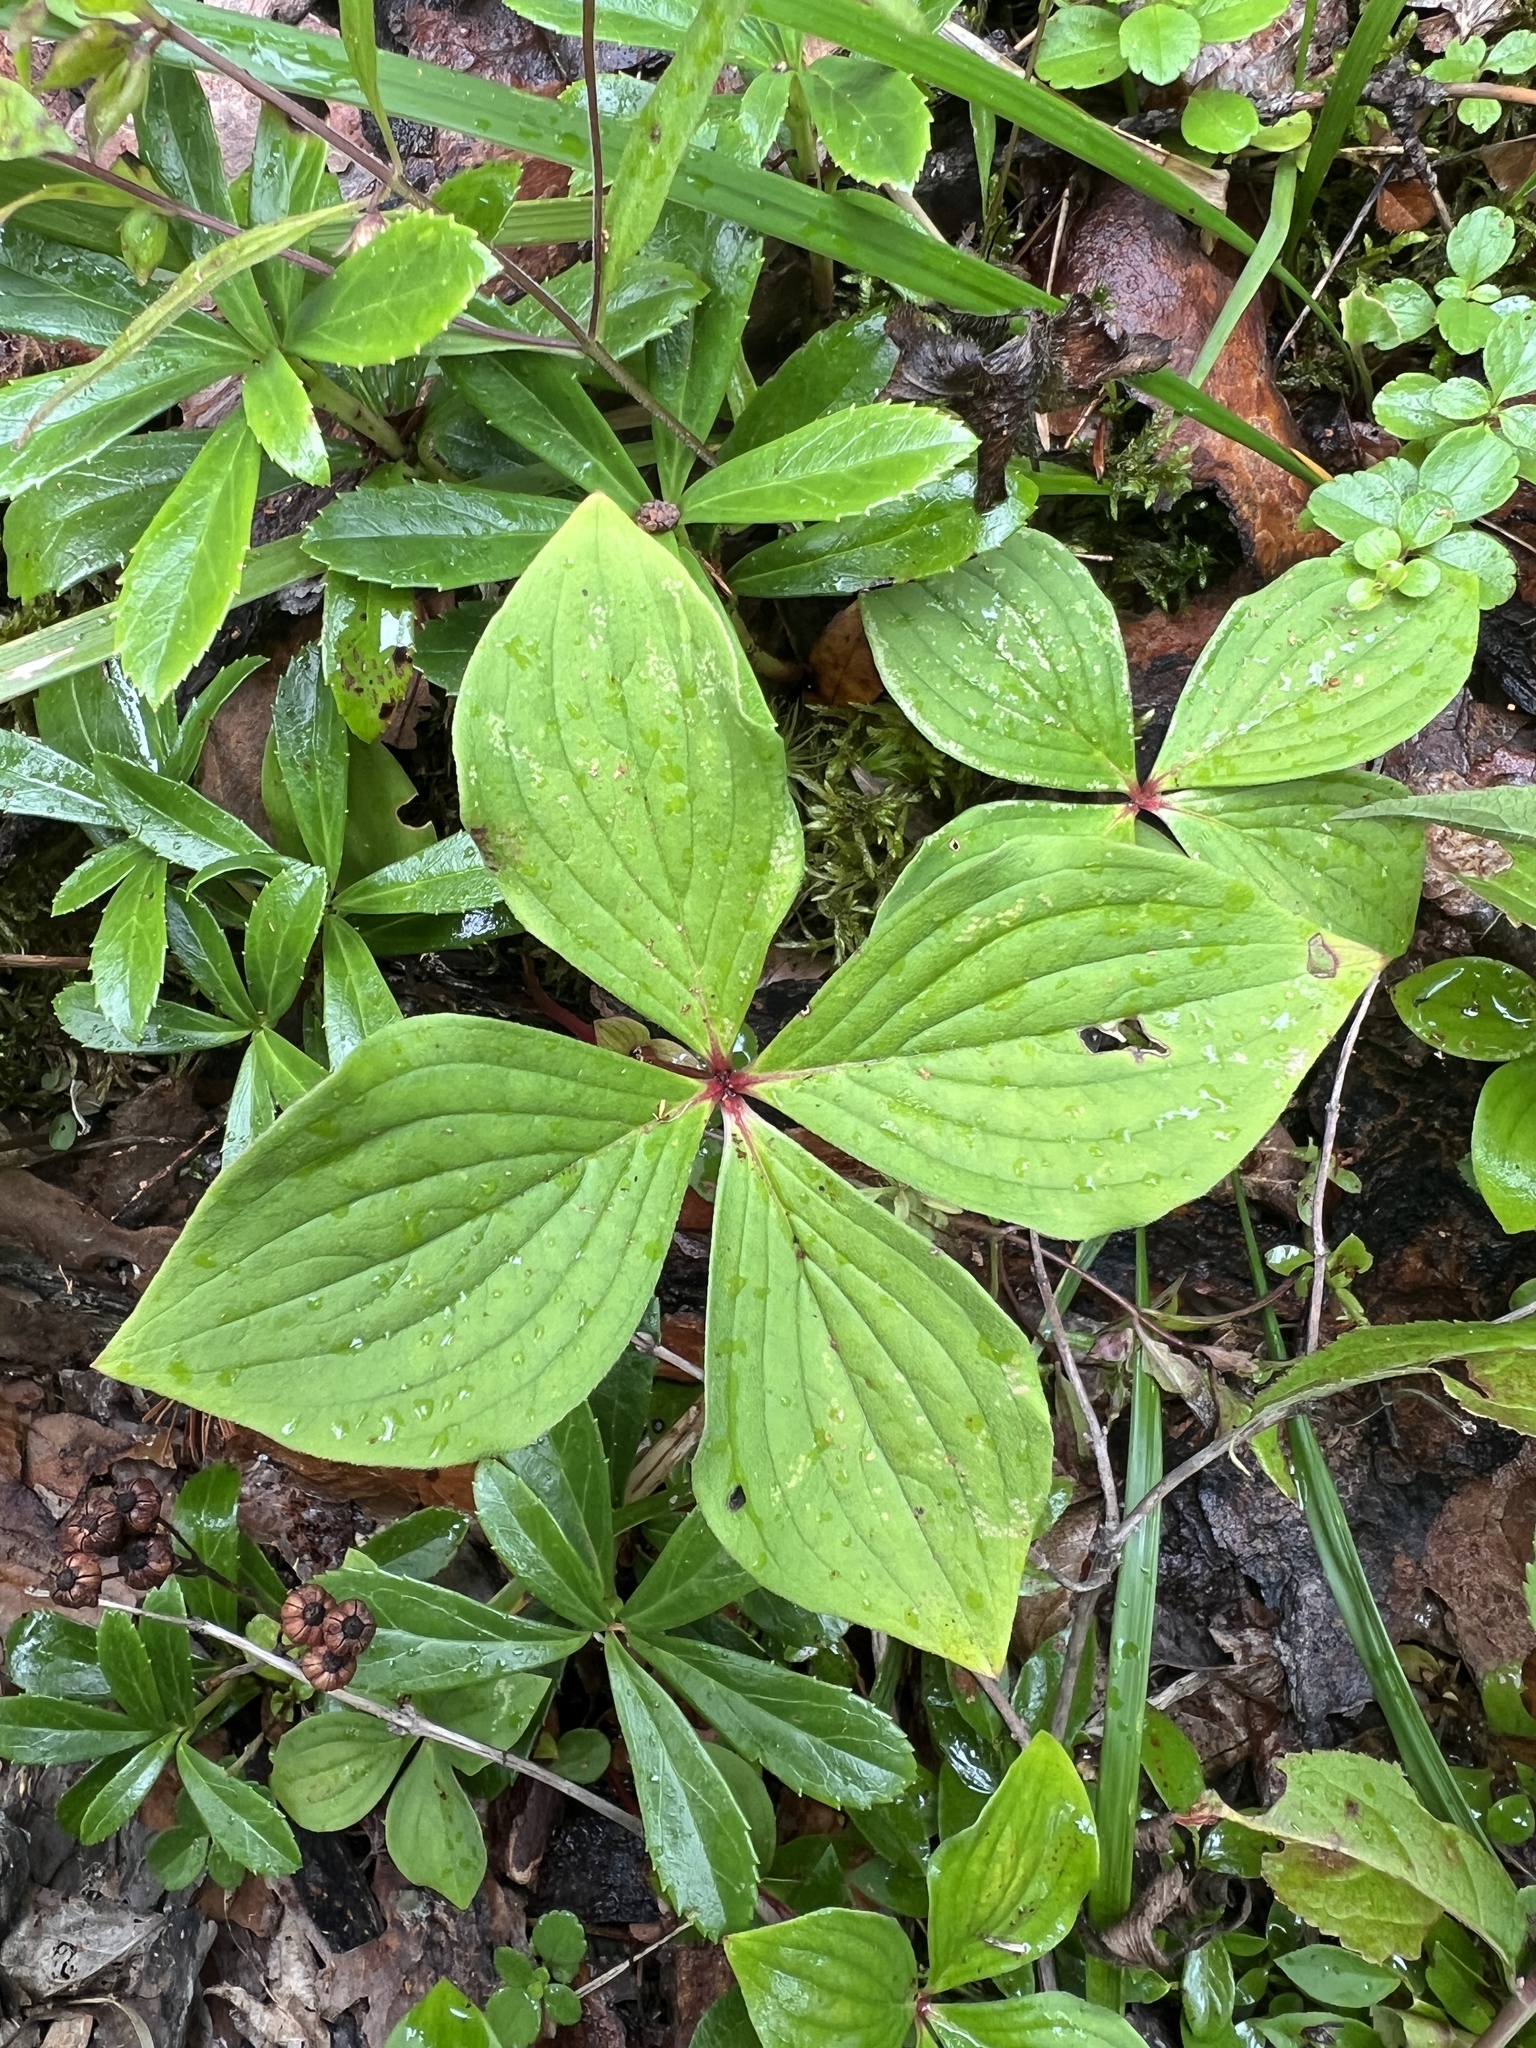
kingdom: Plantae
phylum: Tracheophyta
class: Magnoliopsida
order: Cornales
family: Cornaceae
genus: Cornus
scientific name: Cornus canadensis
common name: Creeping dogwood
